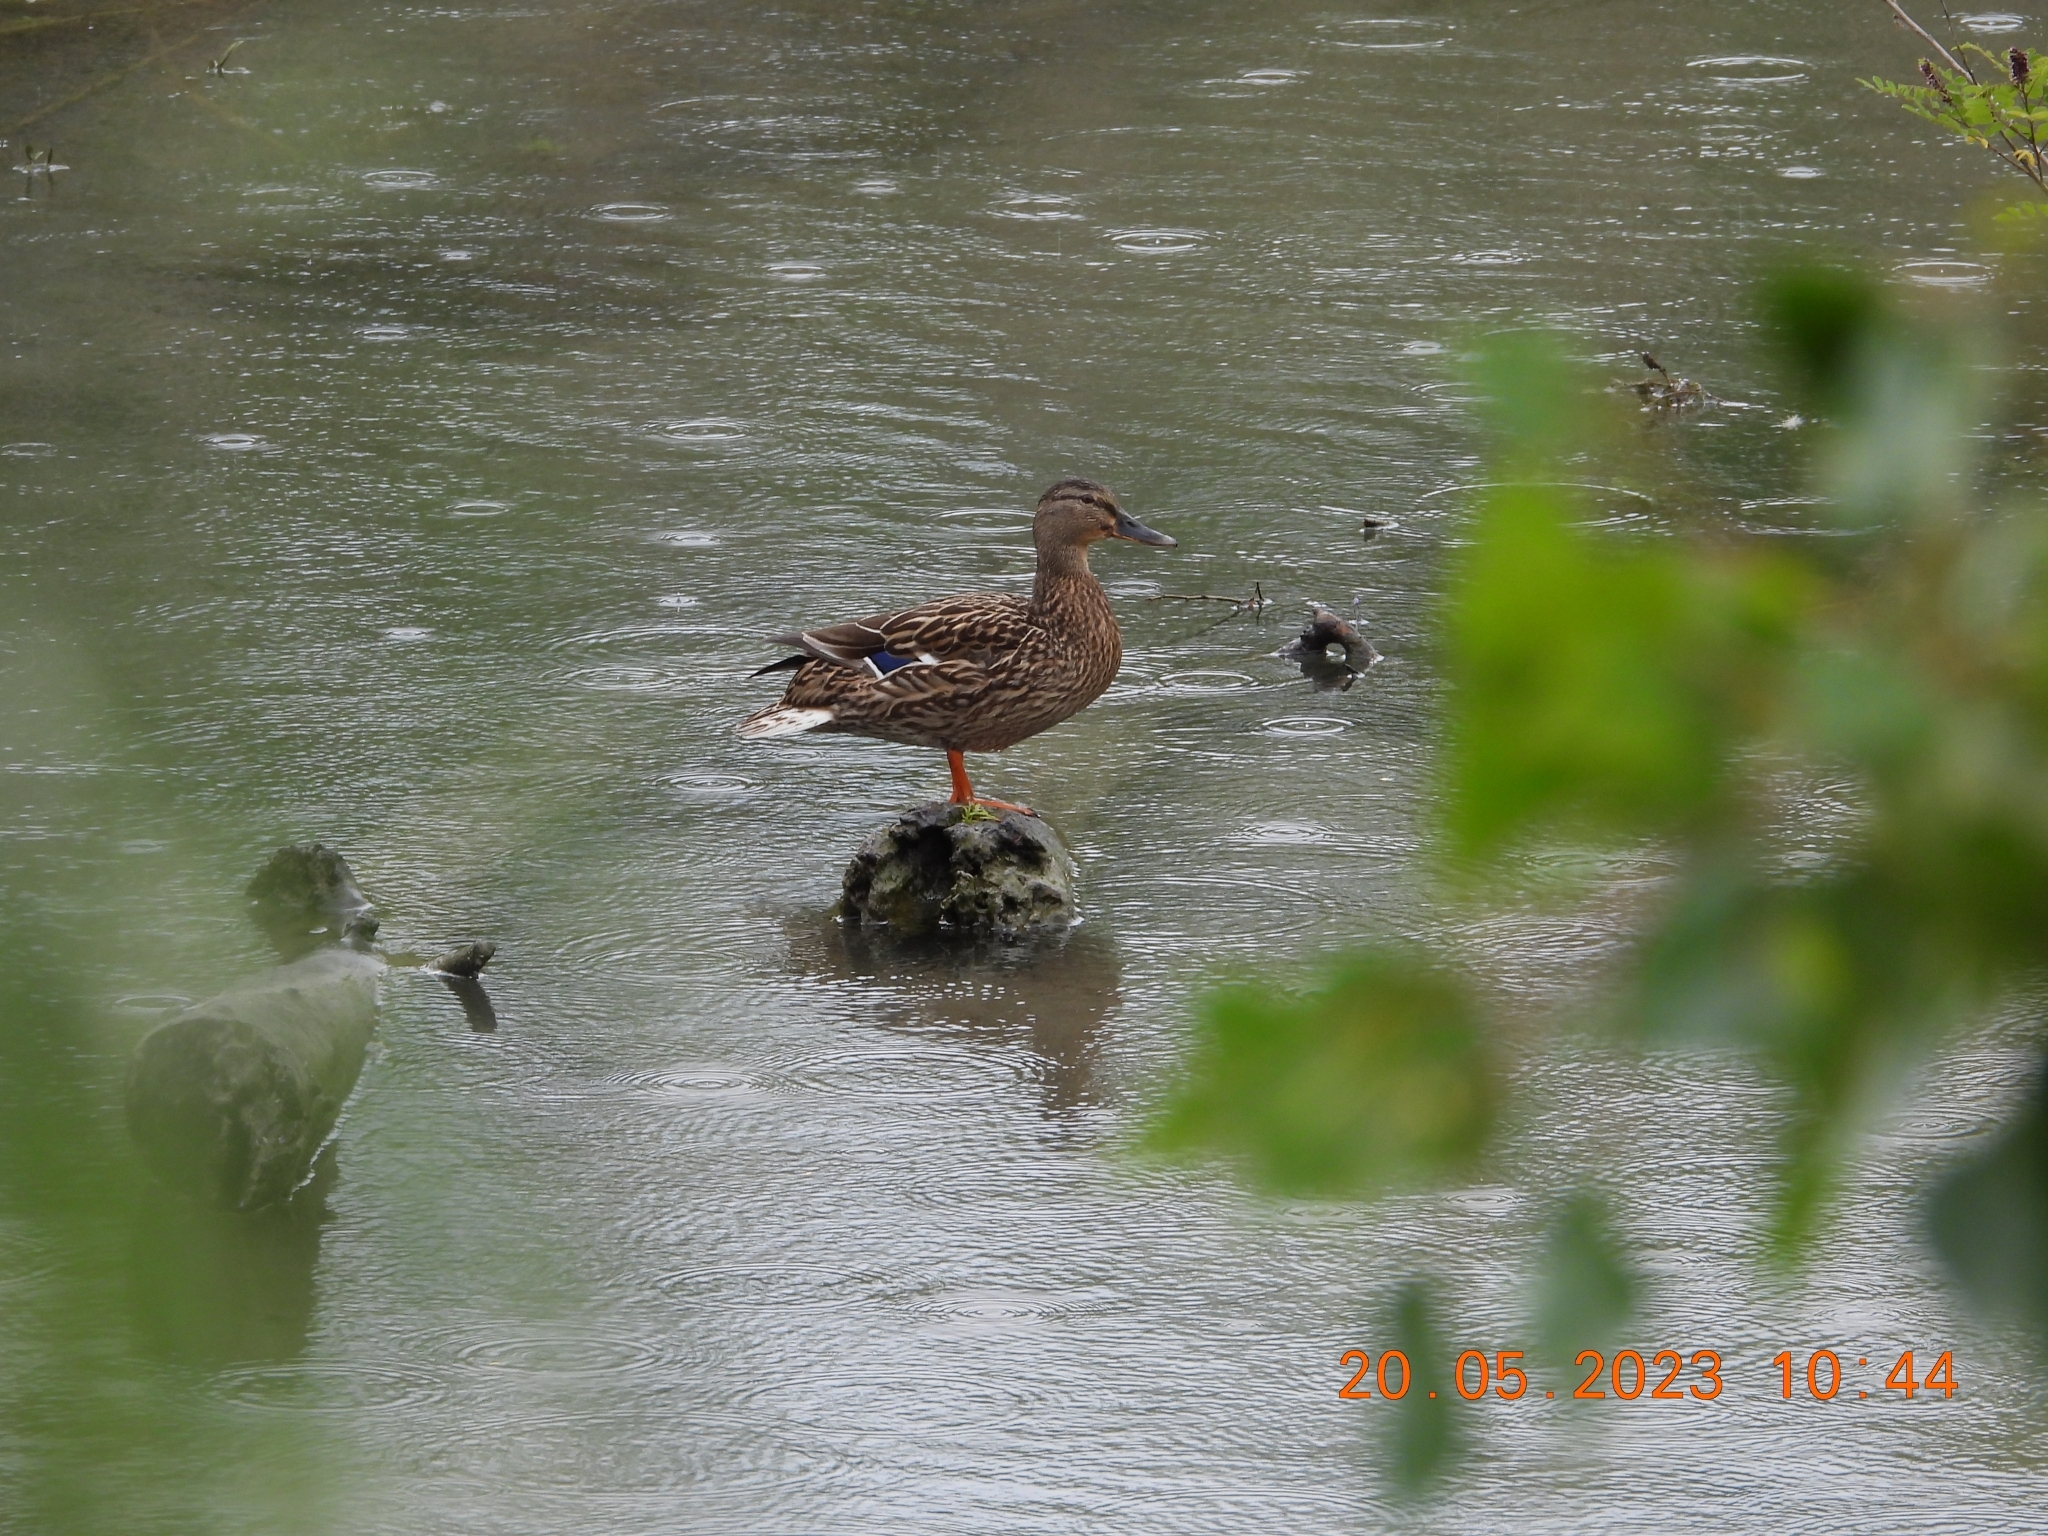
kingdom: Animalia
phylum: Chordata
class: Aves
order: Anseriformes
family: Anatidae
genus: Anas
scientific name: Anas platyrhynchos
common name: Mallard
